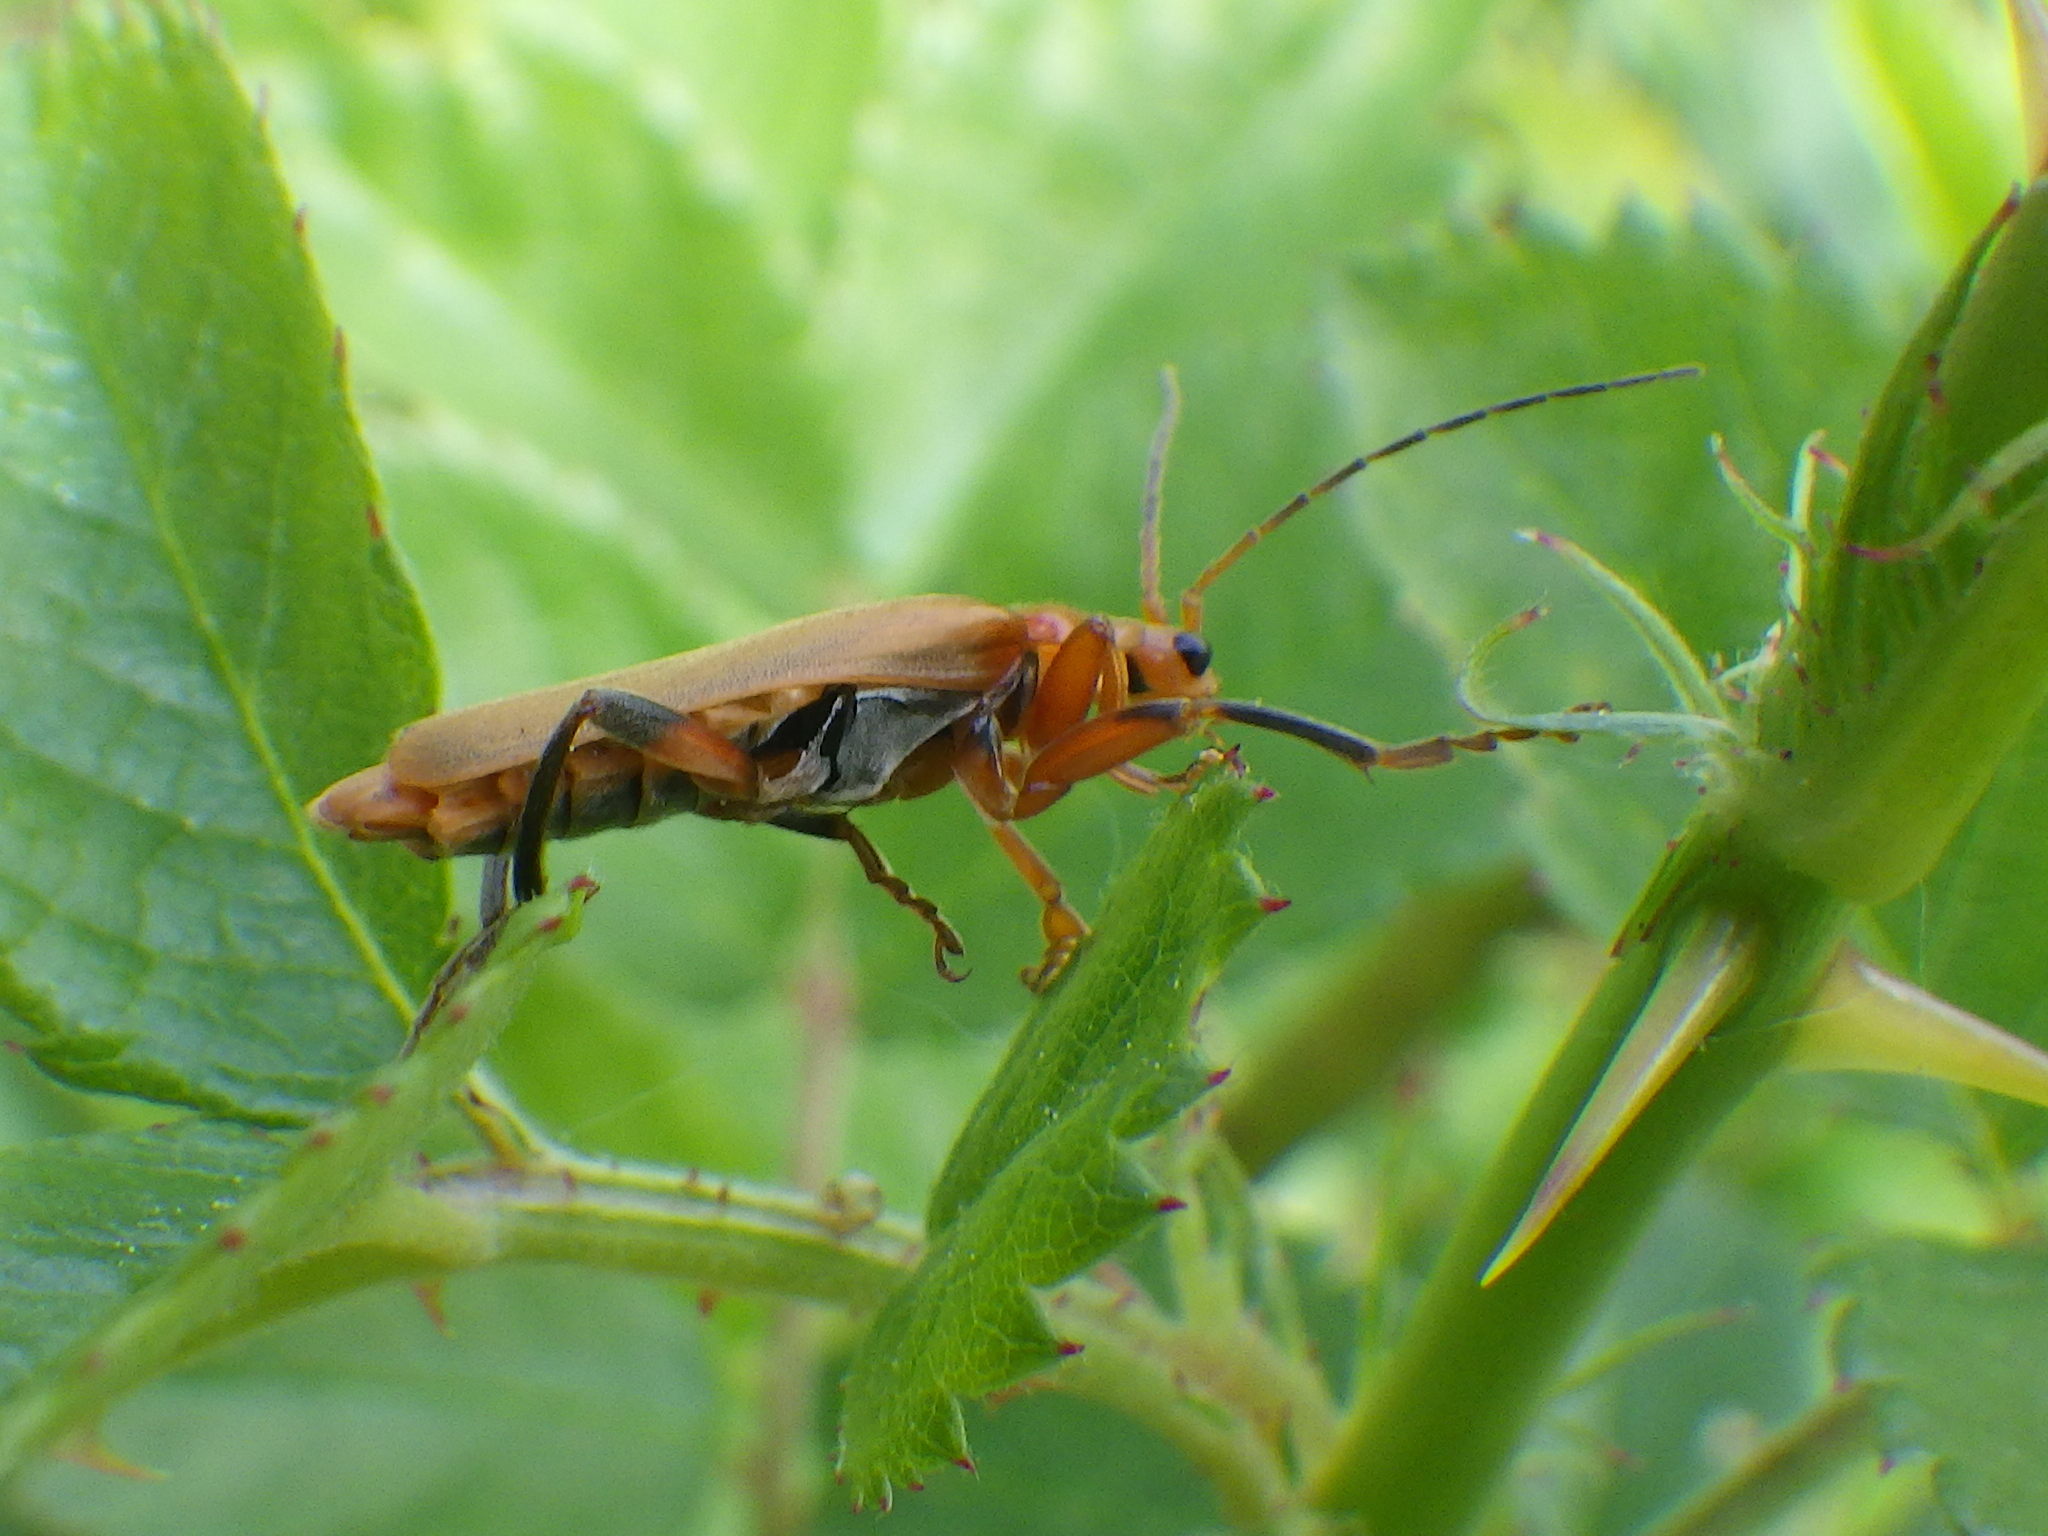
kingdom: Animalia
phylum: Arthropoda
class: Insecta
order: Coleoptera
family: Cantharidae
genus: Cantharis
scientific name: Cantharis livida
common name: Livid soldier beetle
